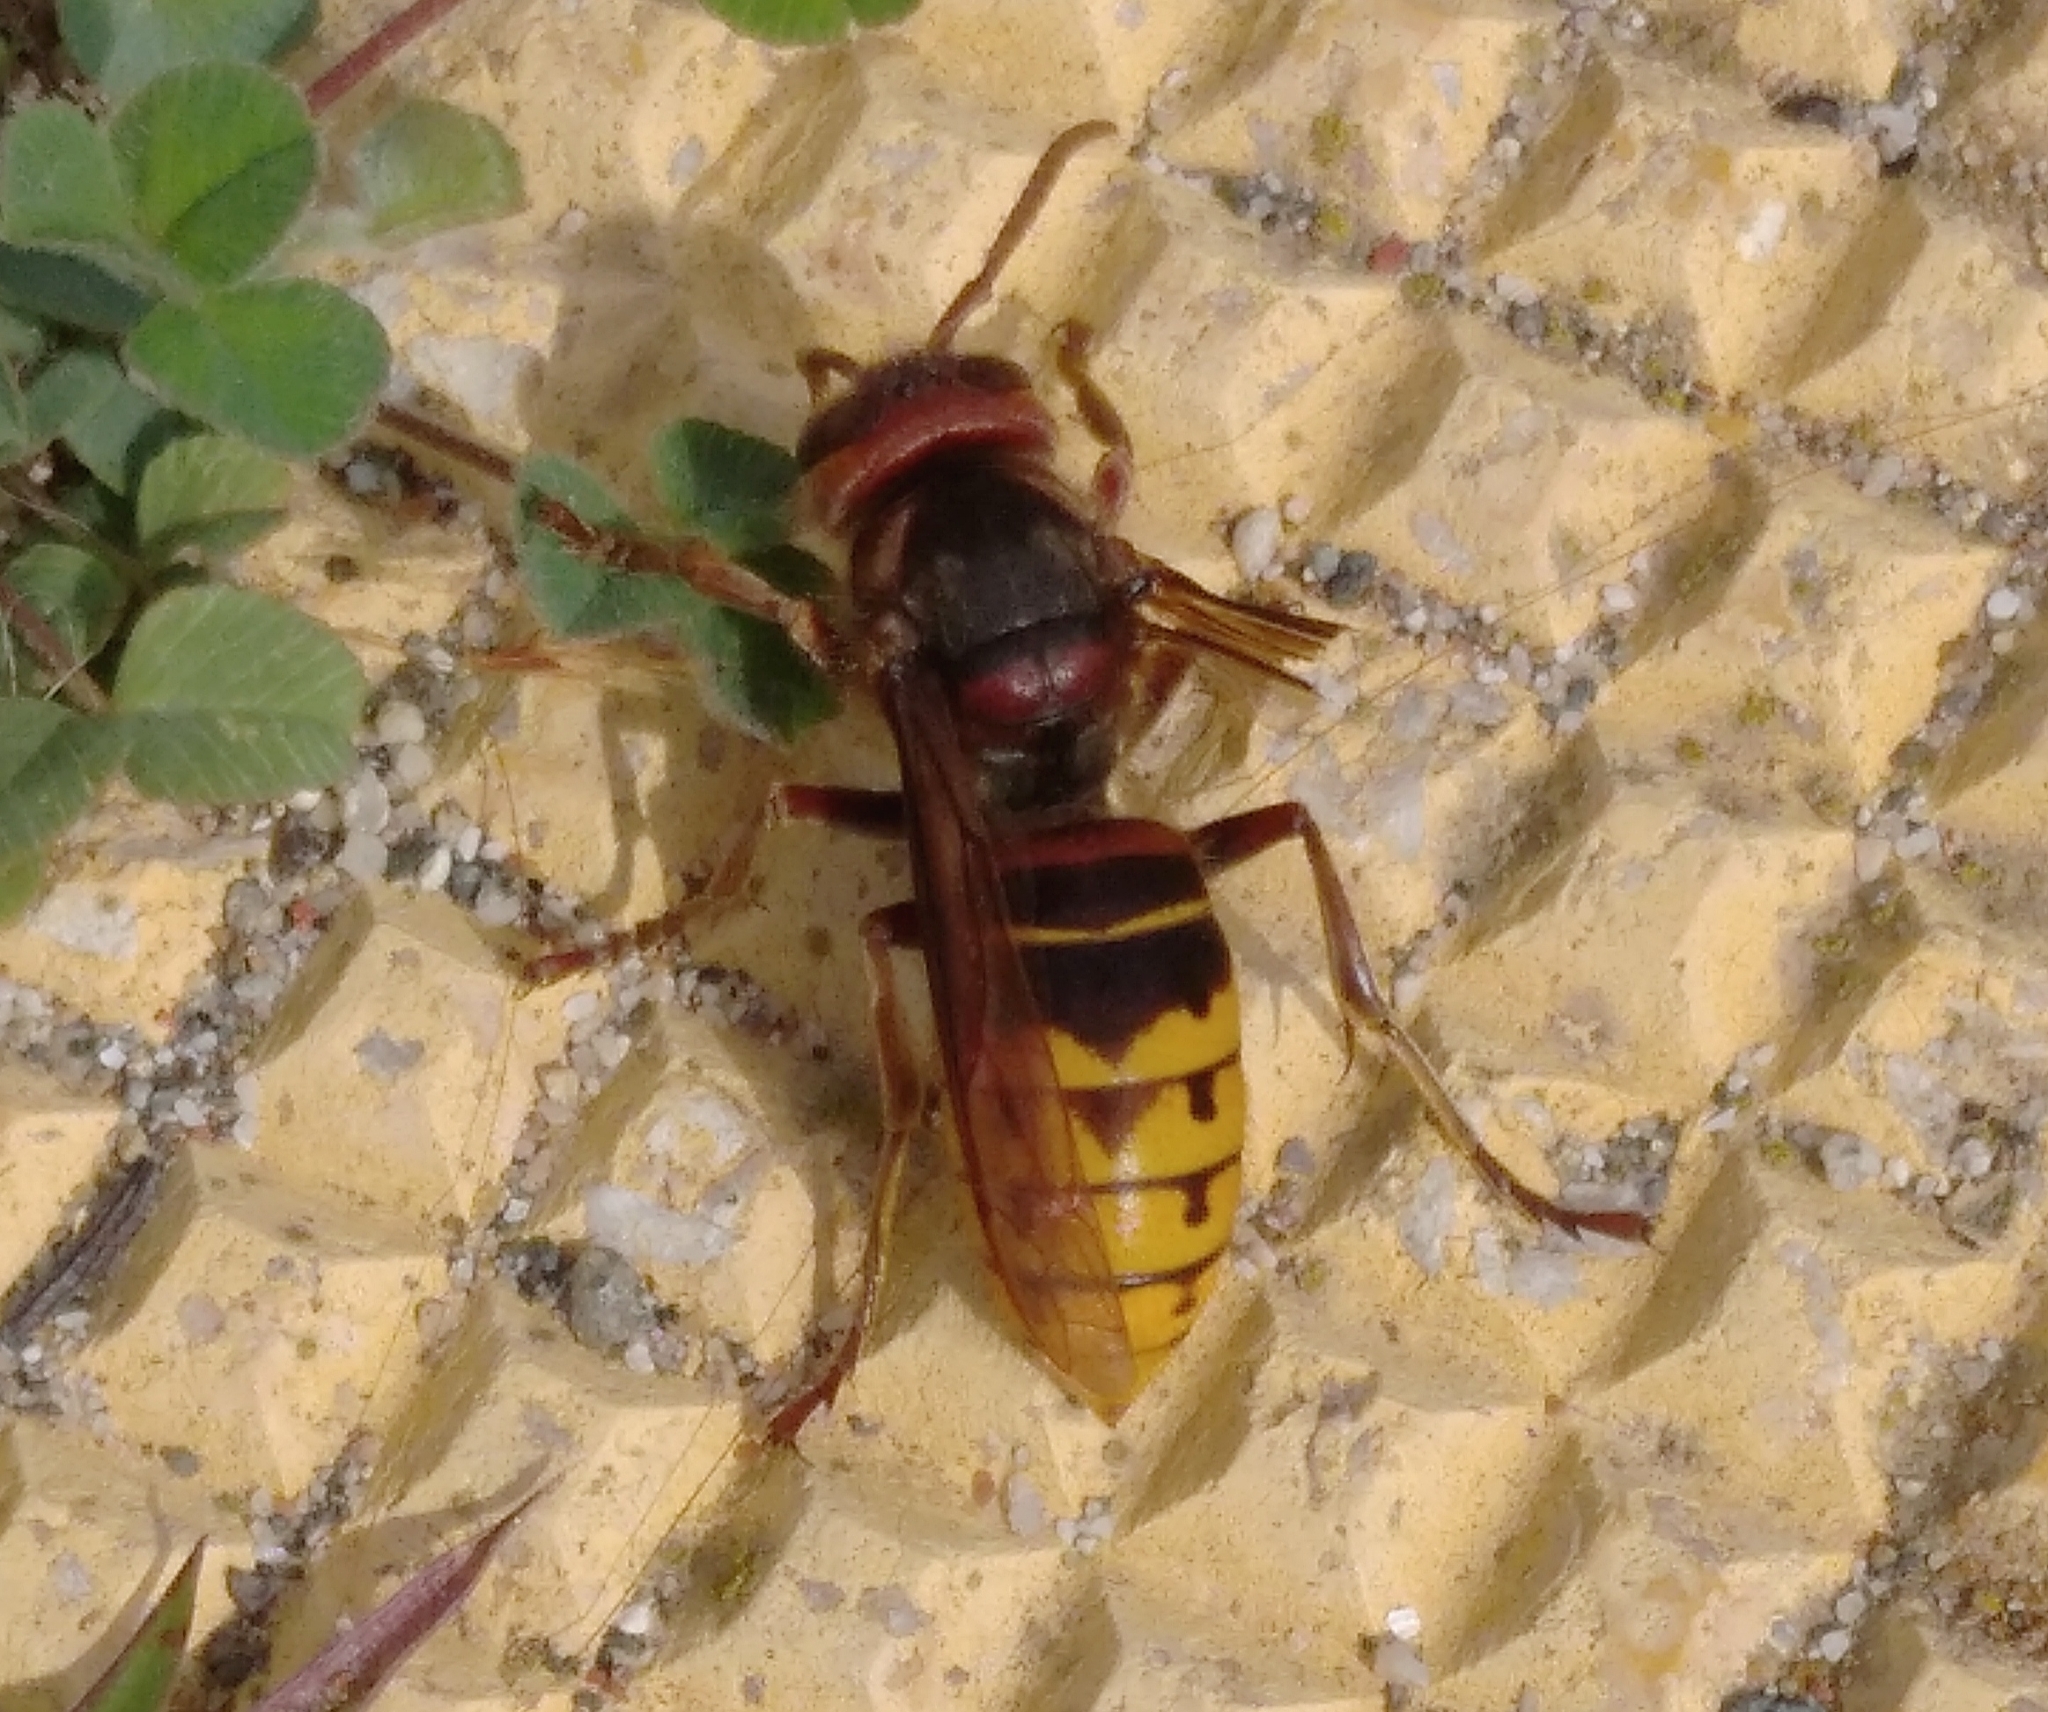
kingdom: Animalia
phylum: Arthropoda
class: Insecta
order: Hymenoptera
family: Vespidae
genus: Vespa
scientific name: Vespa crabro
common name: Hornet
